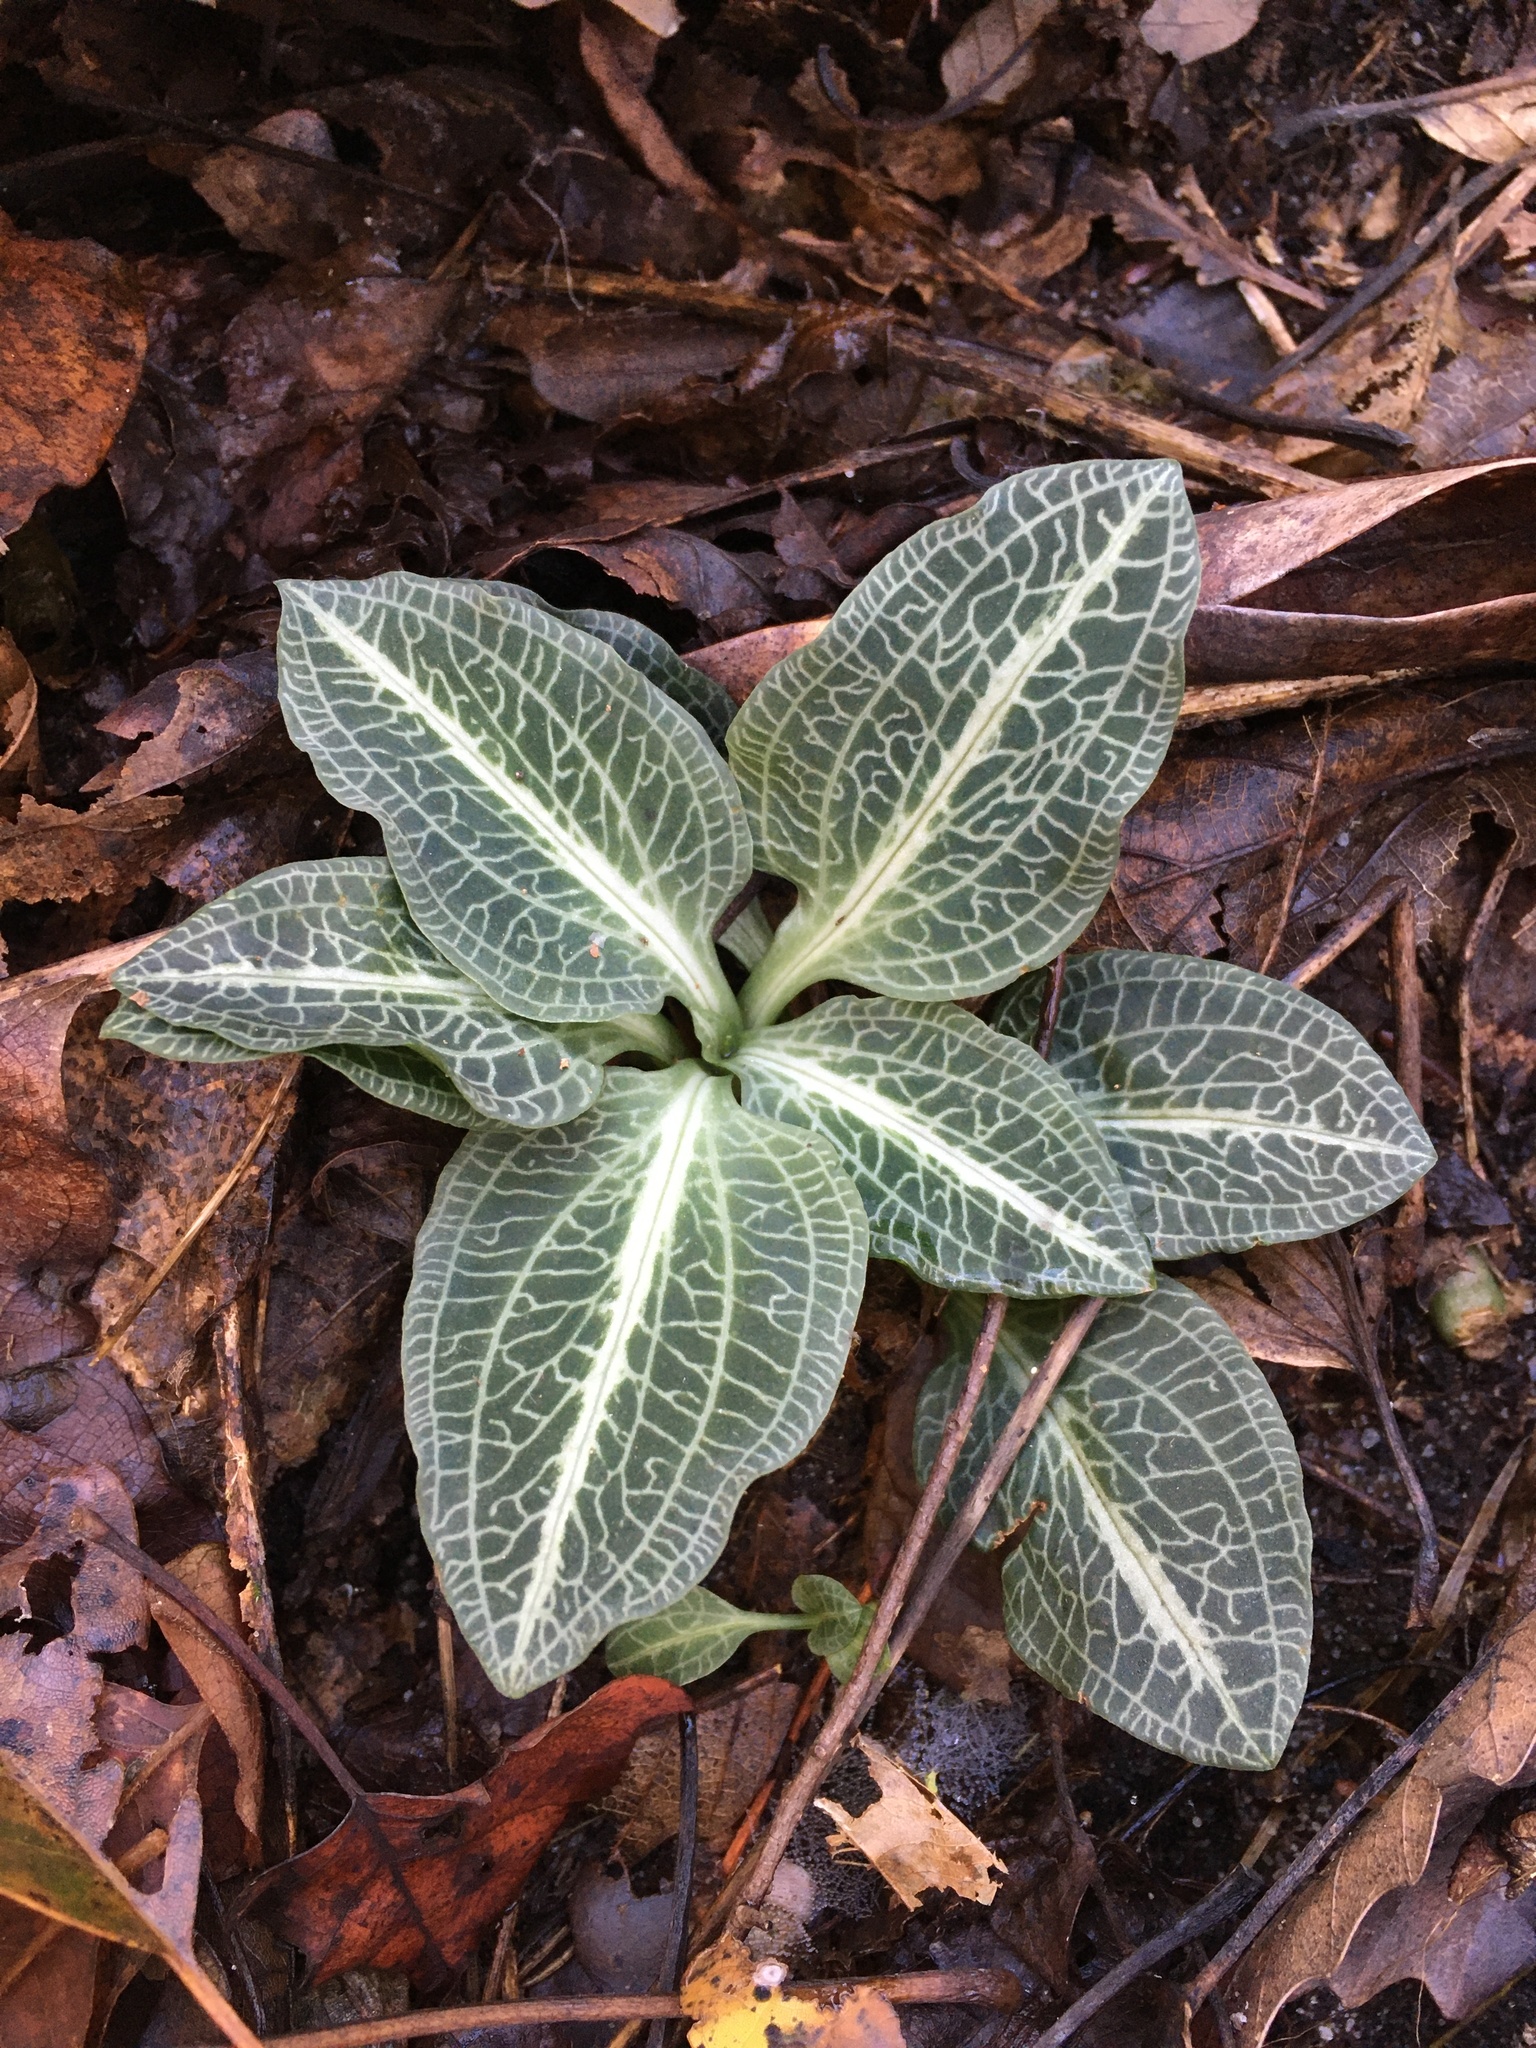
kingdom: Plantae
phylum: Tracheophyta
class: Liliopsida
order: Asparagales
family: Orchidaceae
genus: Goodyera
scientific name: Goodyera pubescens
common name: Downy rattlesnake-plantain
